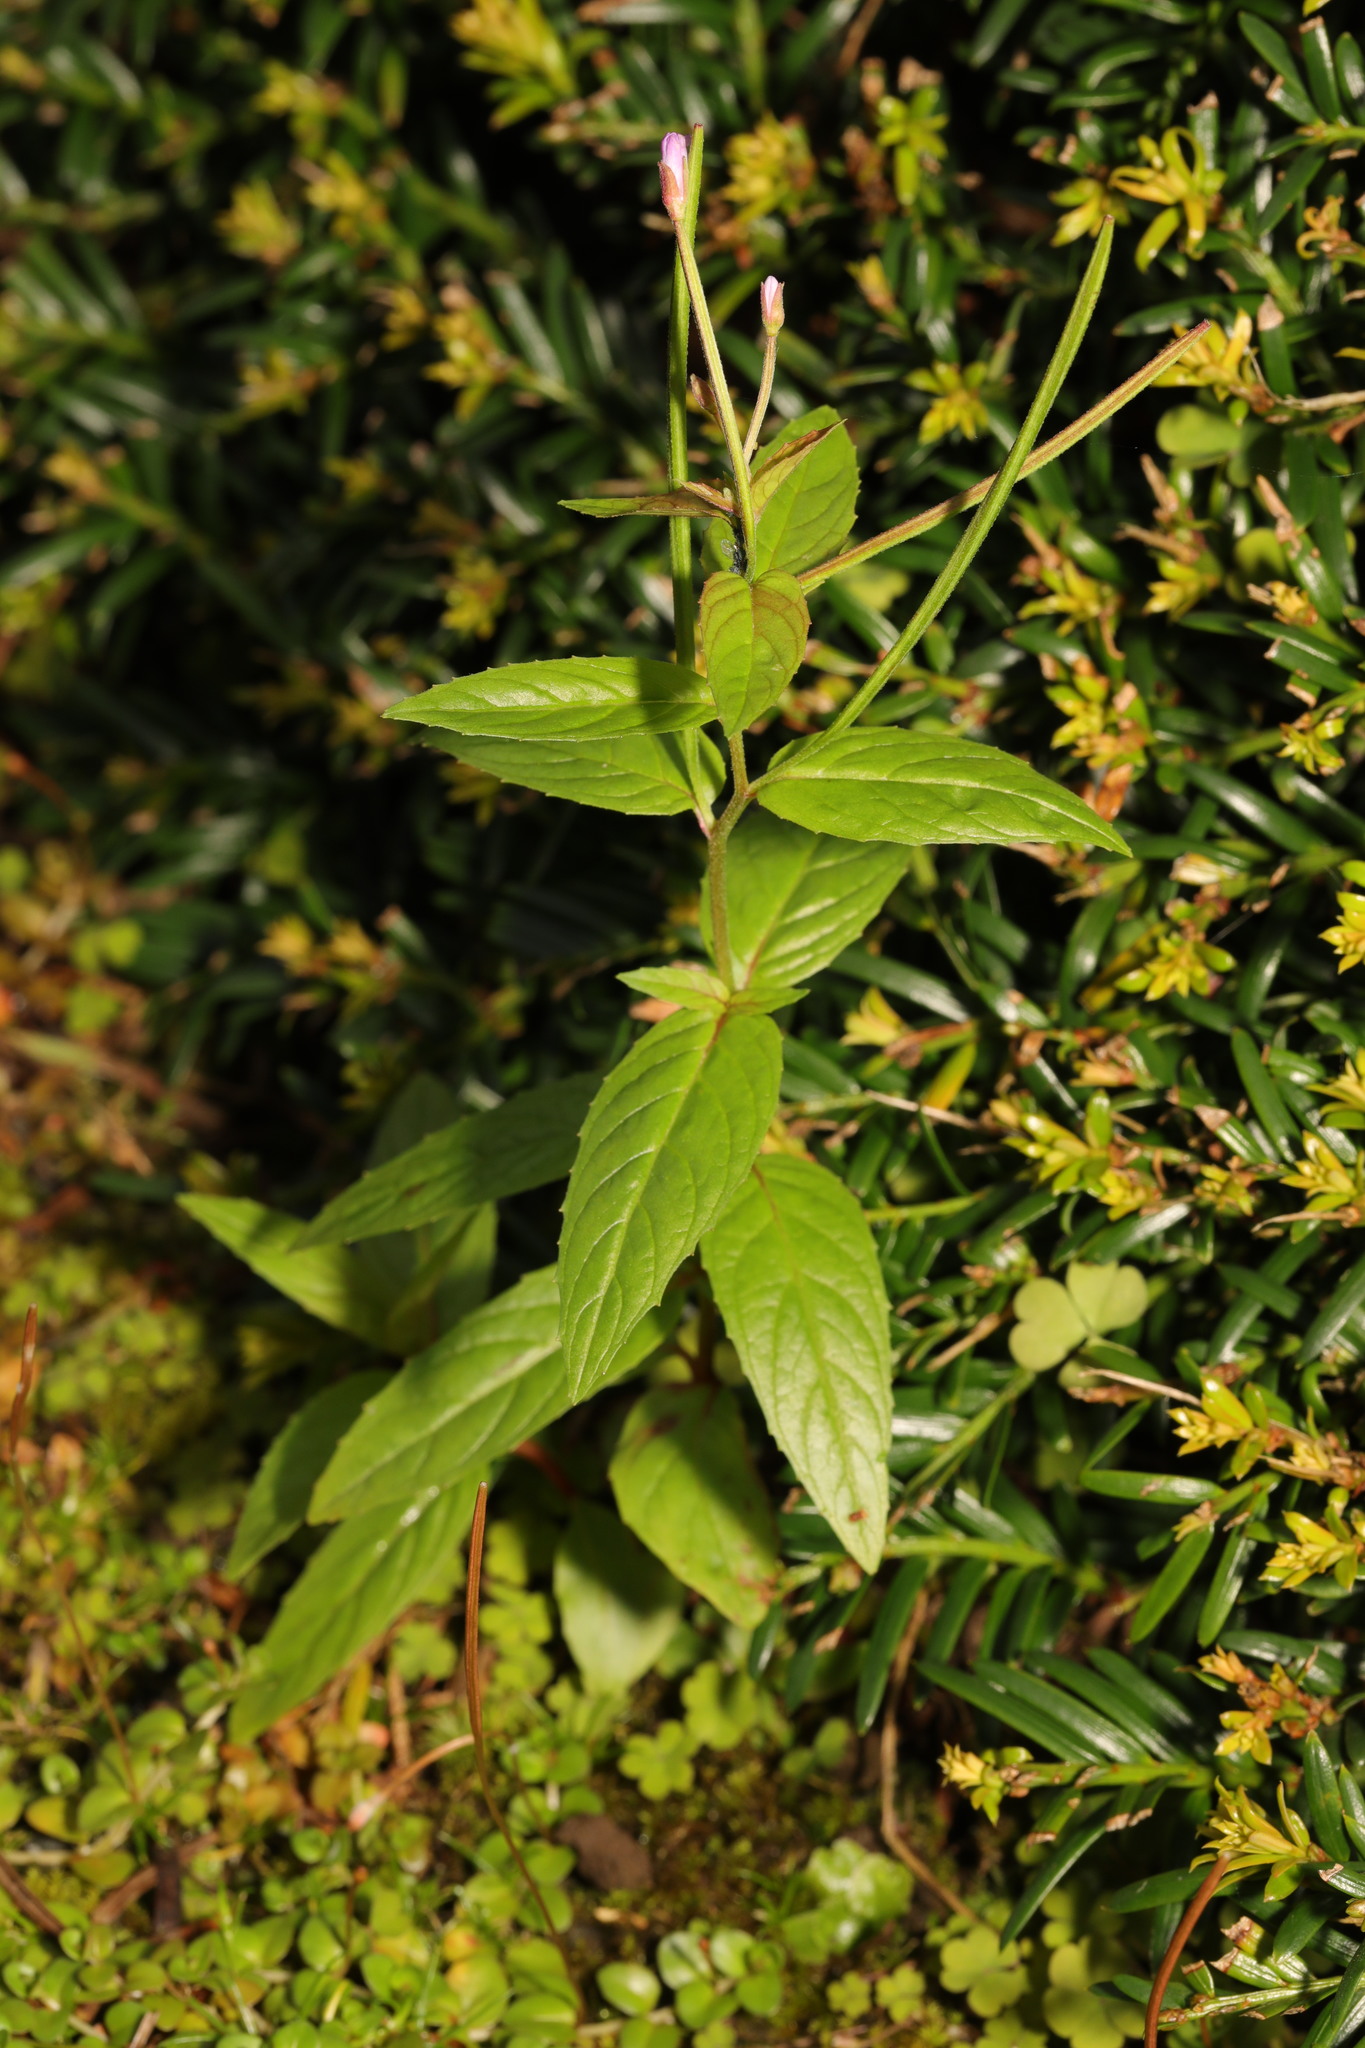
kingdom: Plantae
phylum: Tracheophyta
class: Magnoliopsida
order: Myrtales
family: Onagraceae
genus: Epilobium
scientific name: Epilobium montanum
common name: Broad-leaved willowherb
